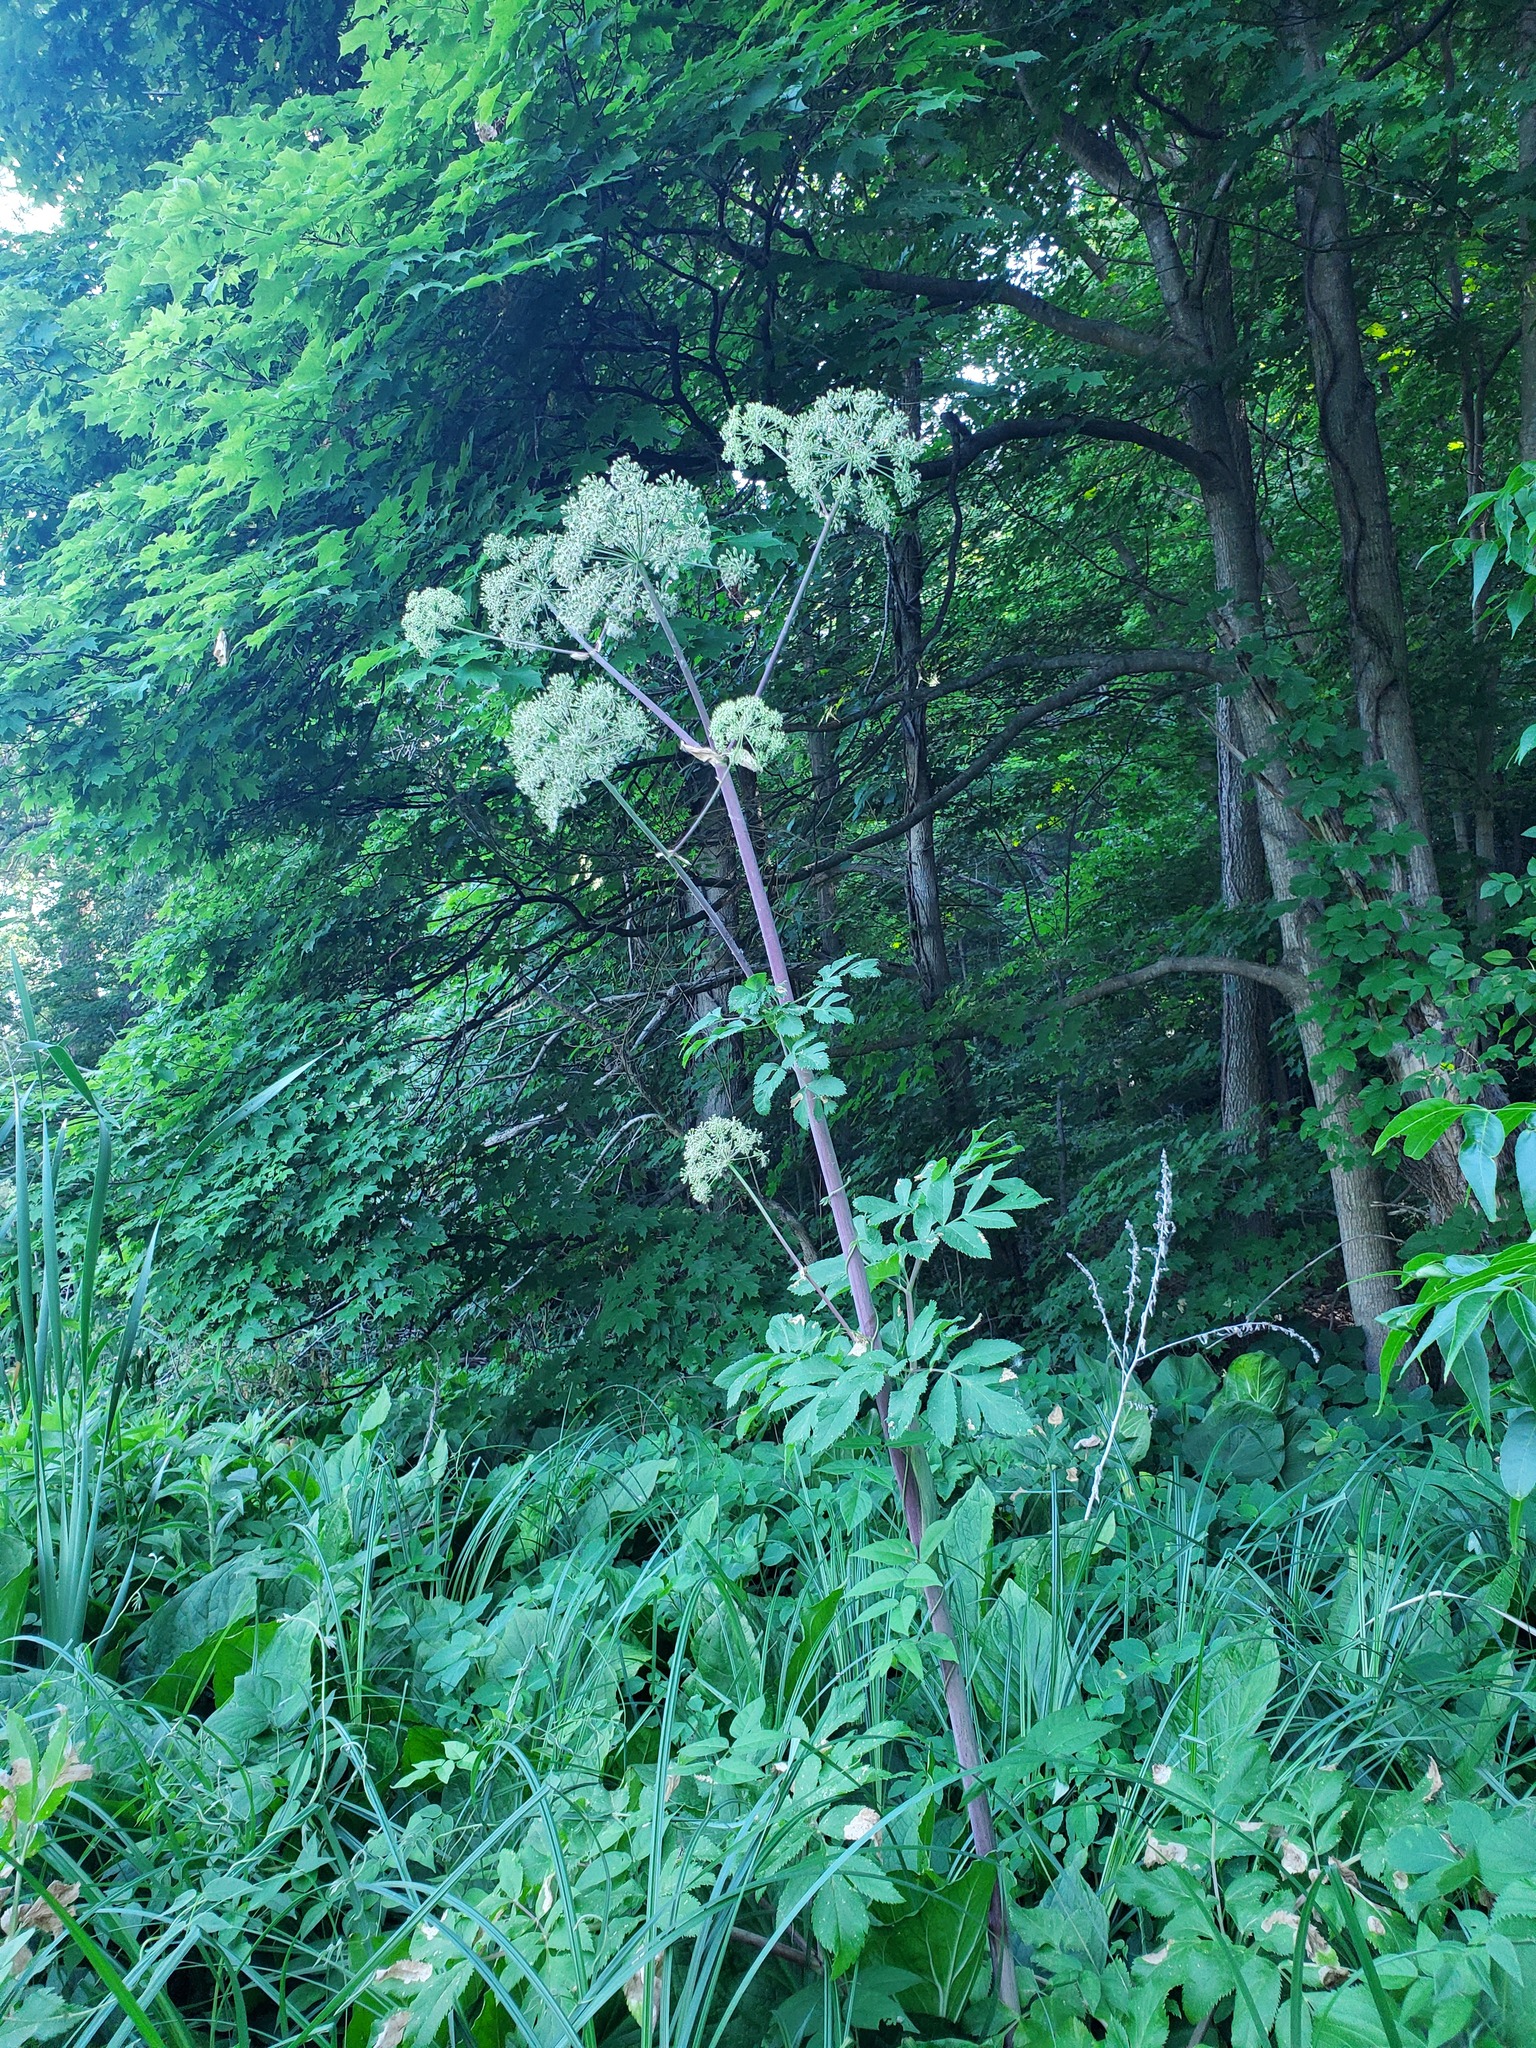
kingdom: Plantae
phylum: Tracheophyta
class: Magnoliopsida
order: Apiales
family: Apiaceae
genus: Angelica
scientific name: Angelica atropurpurea
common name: Great angelica
